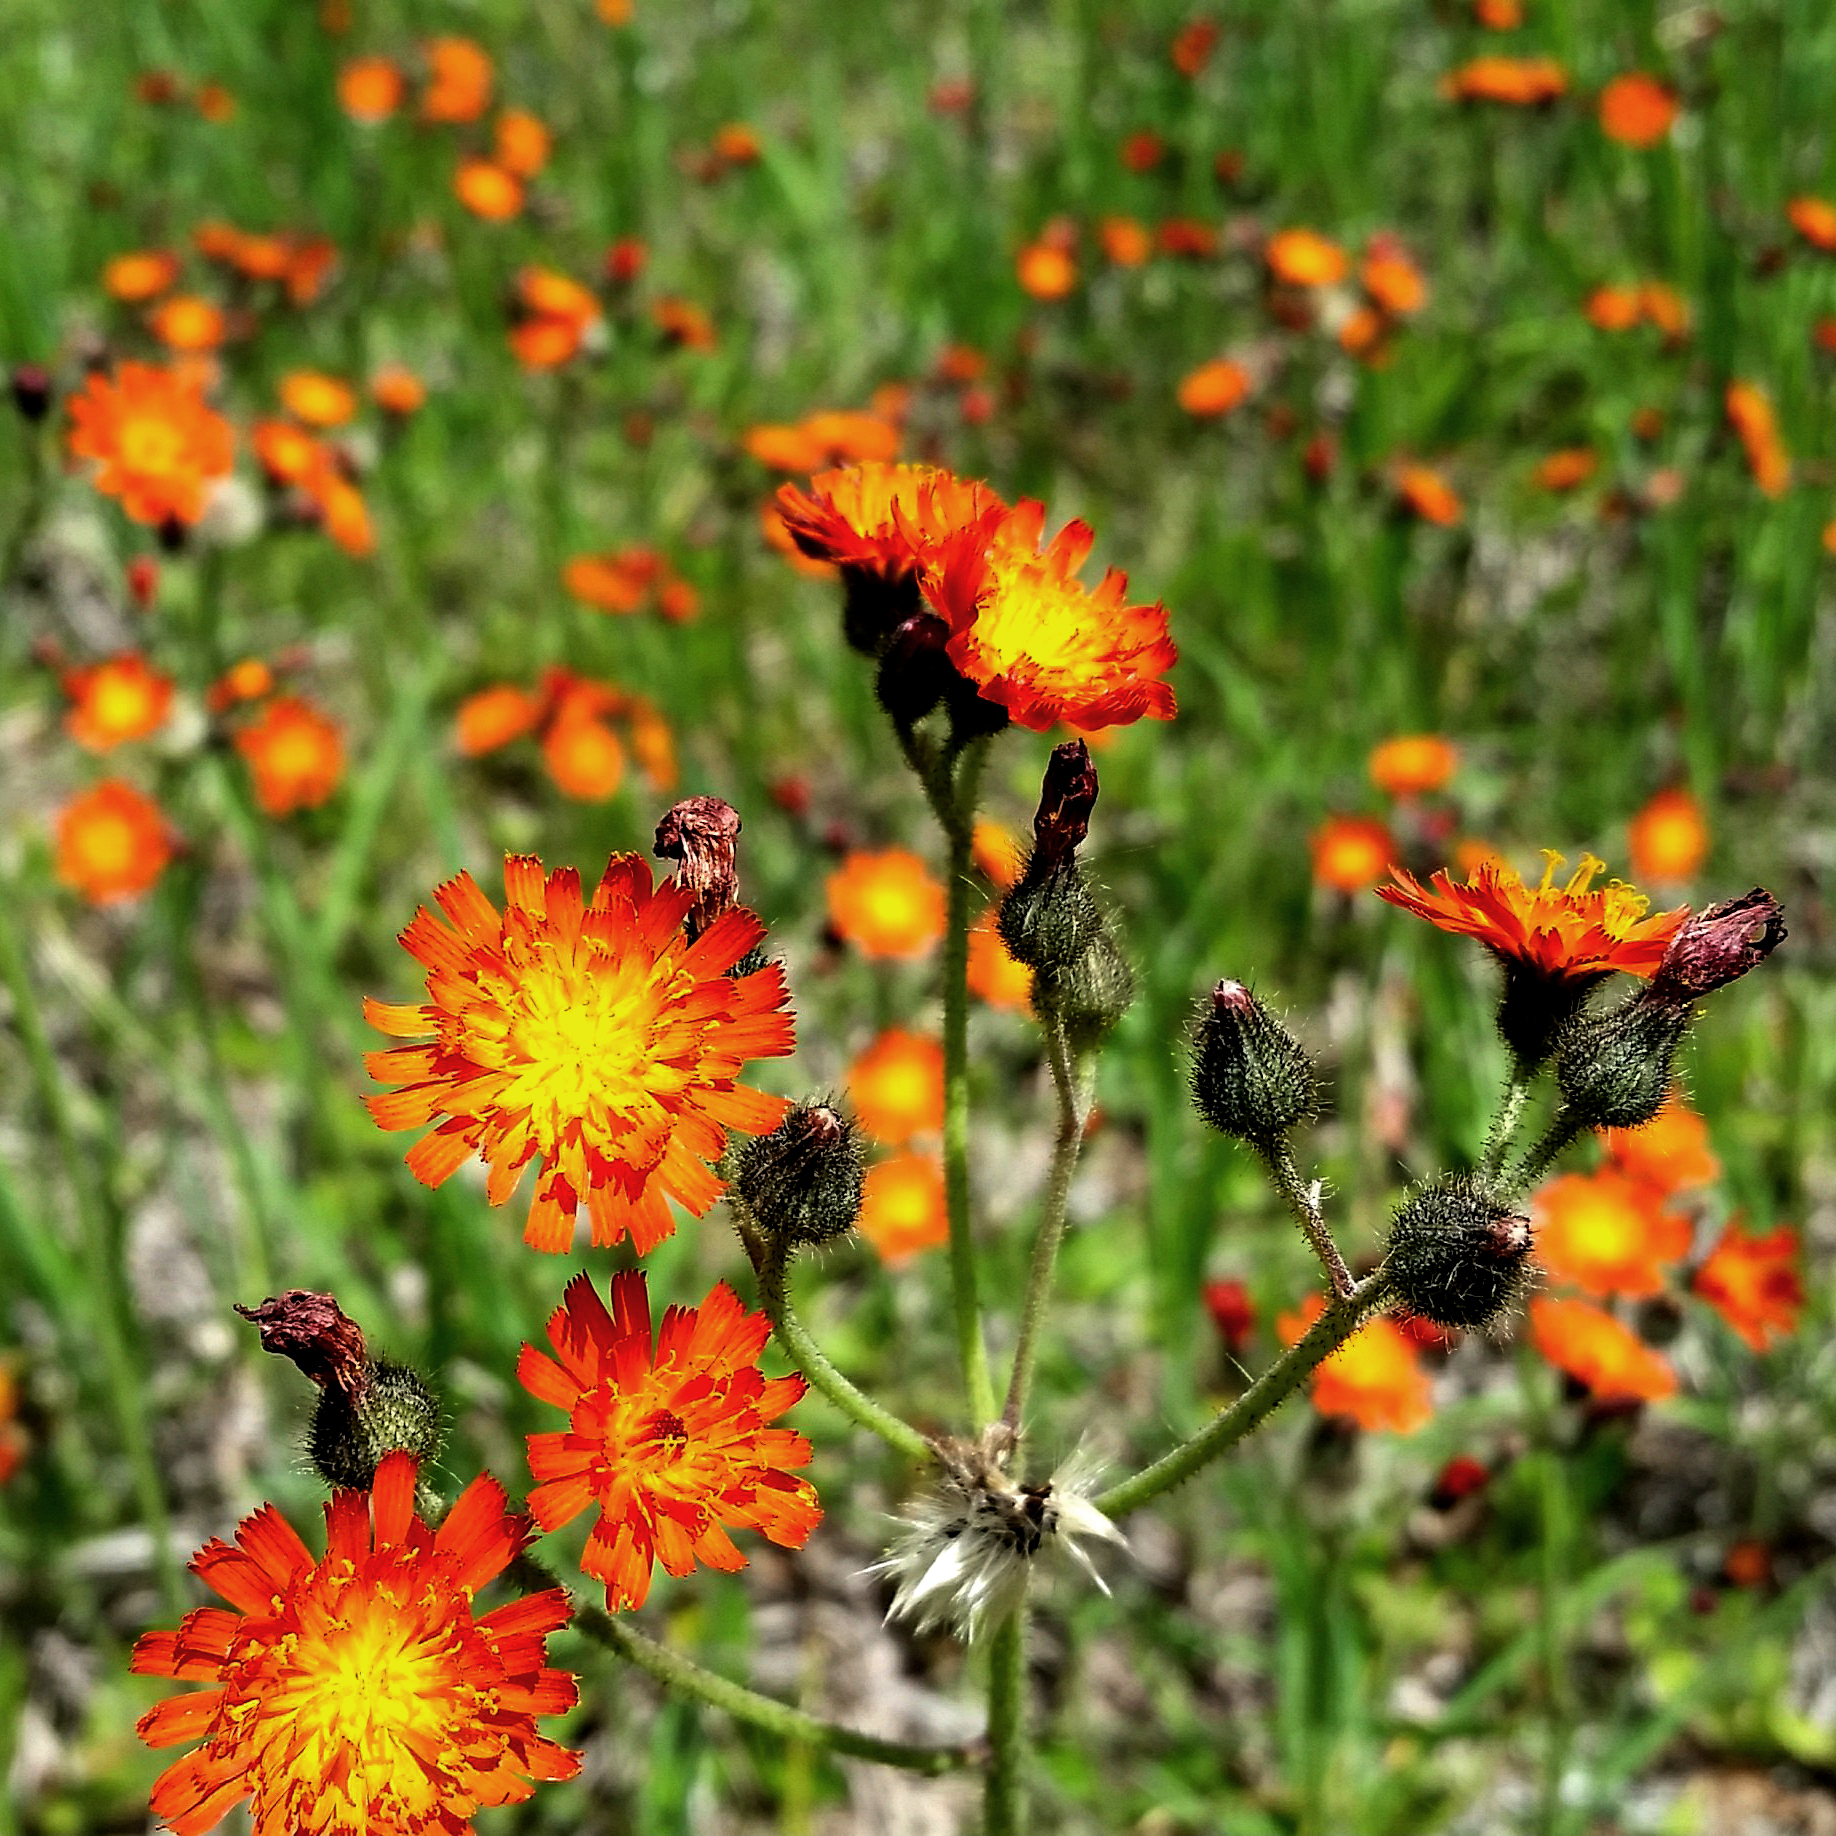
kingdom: Plantae
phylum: Tracheophyta
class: Magnoliopsida
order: Asterales
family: Asteraceae
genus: Pilosella
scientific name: Pilosella aurantiaca
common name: Fox-and-cubs
